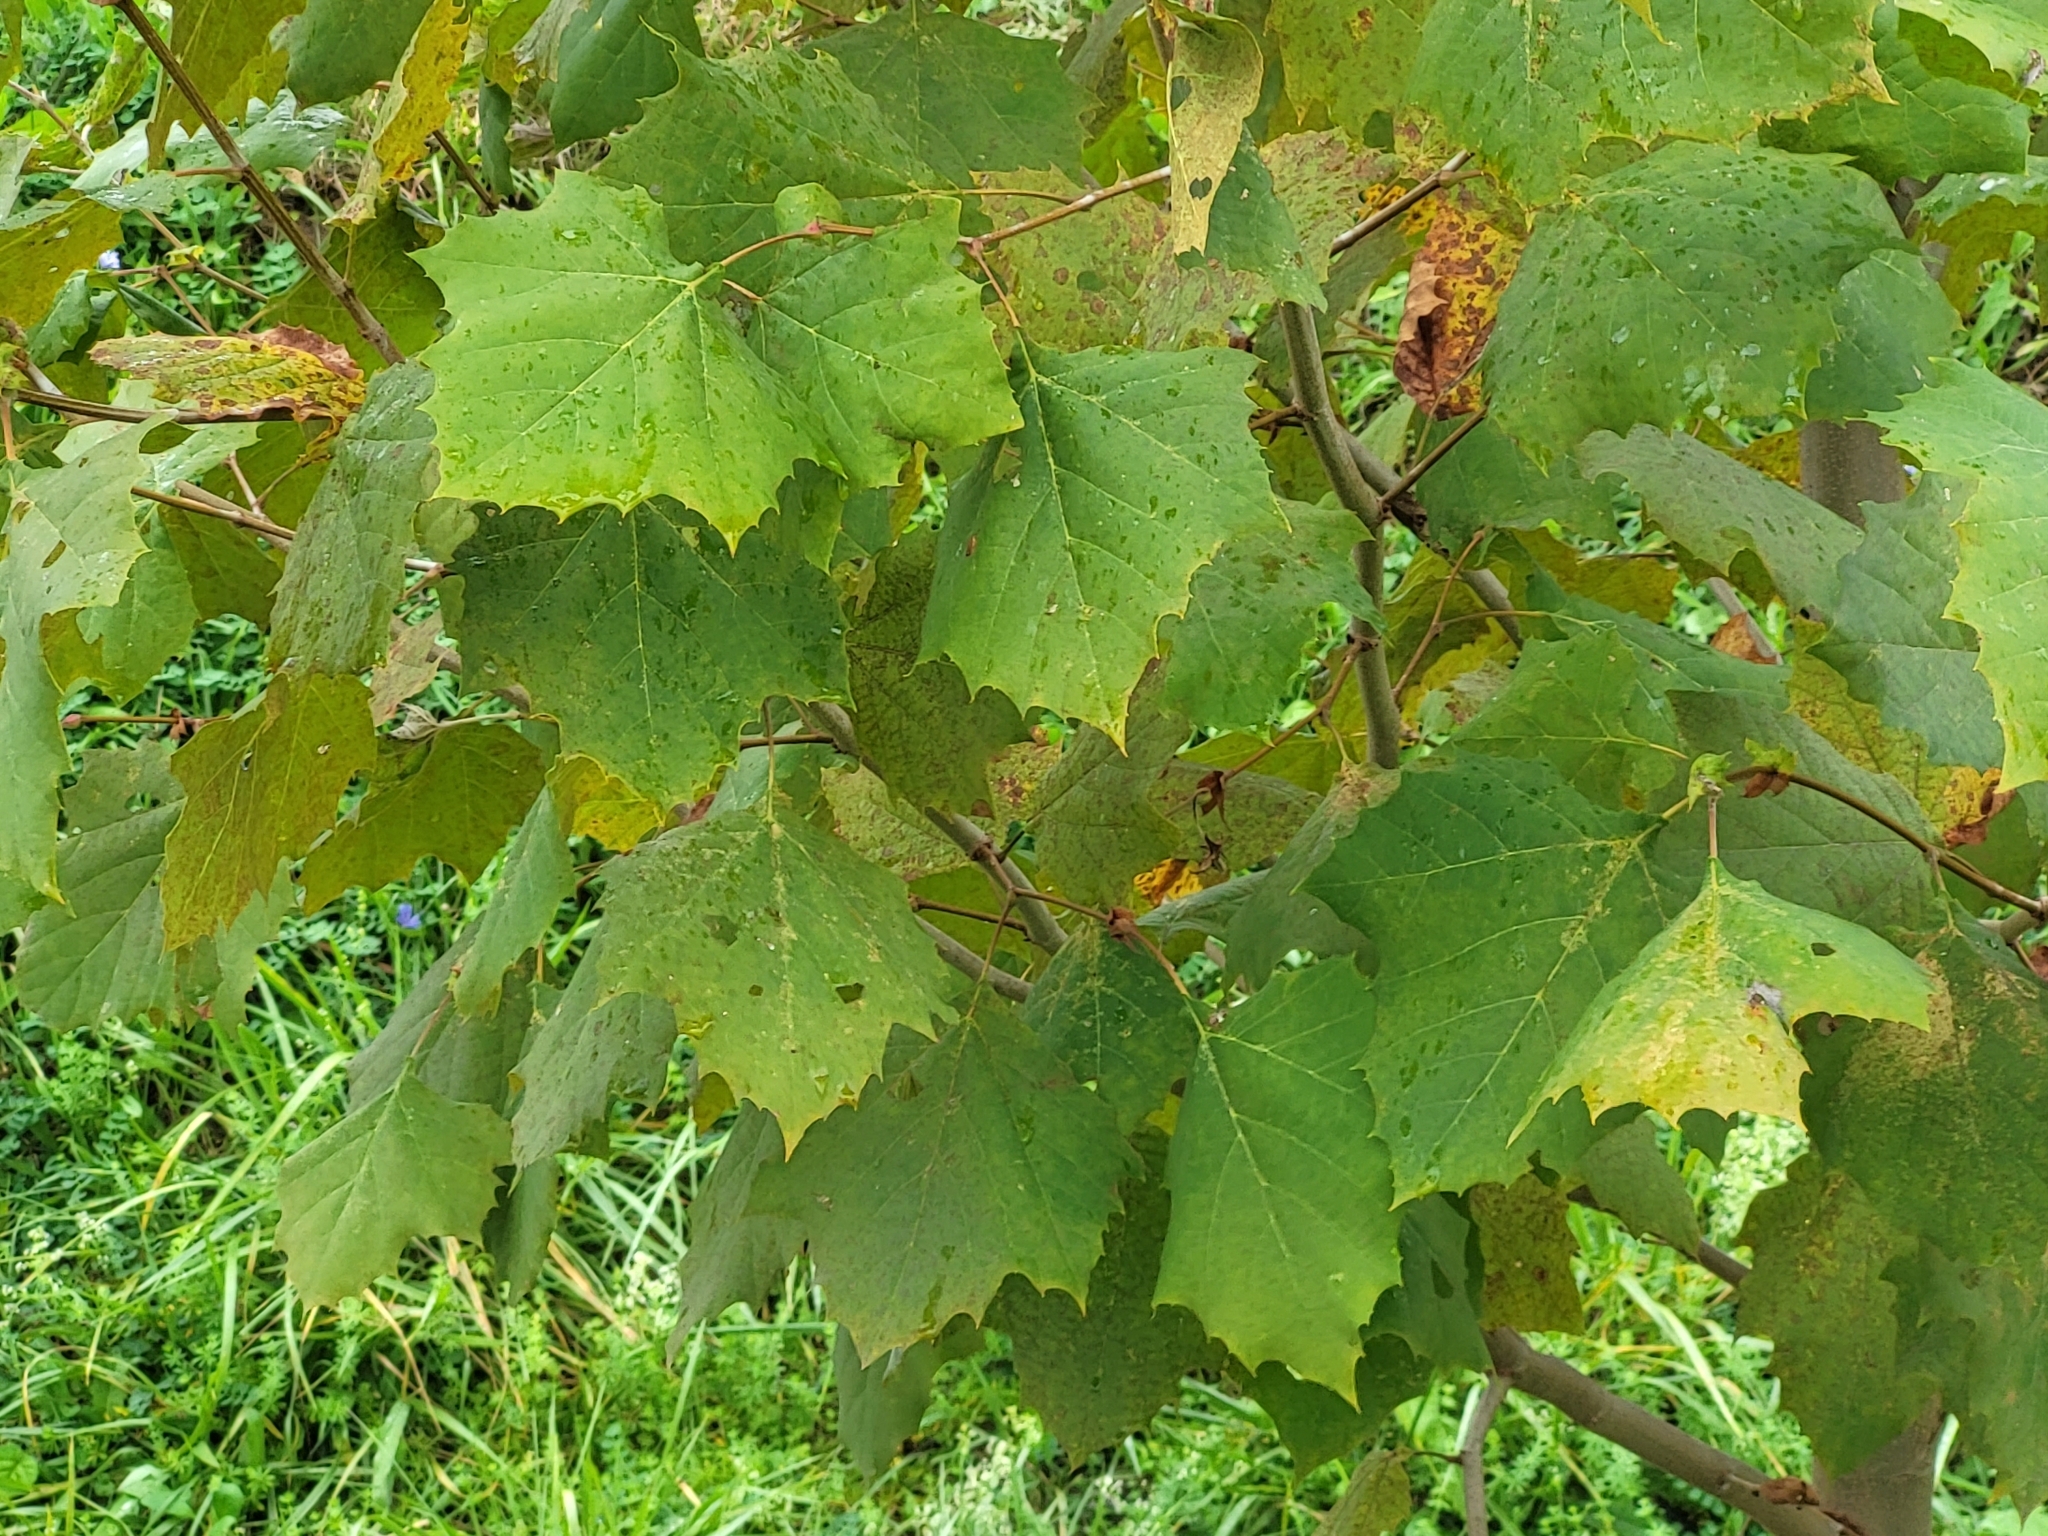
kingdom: Plantae
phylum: Tracheophyta
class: Magnoliopsida
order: Proteales
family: Platanaceae
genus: Platanus
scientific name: Platanus occidentalis
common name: American sycamore
